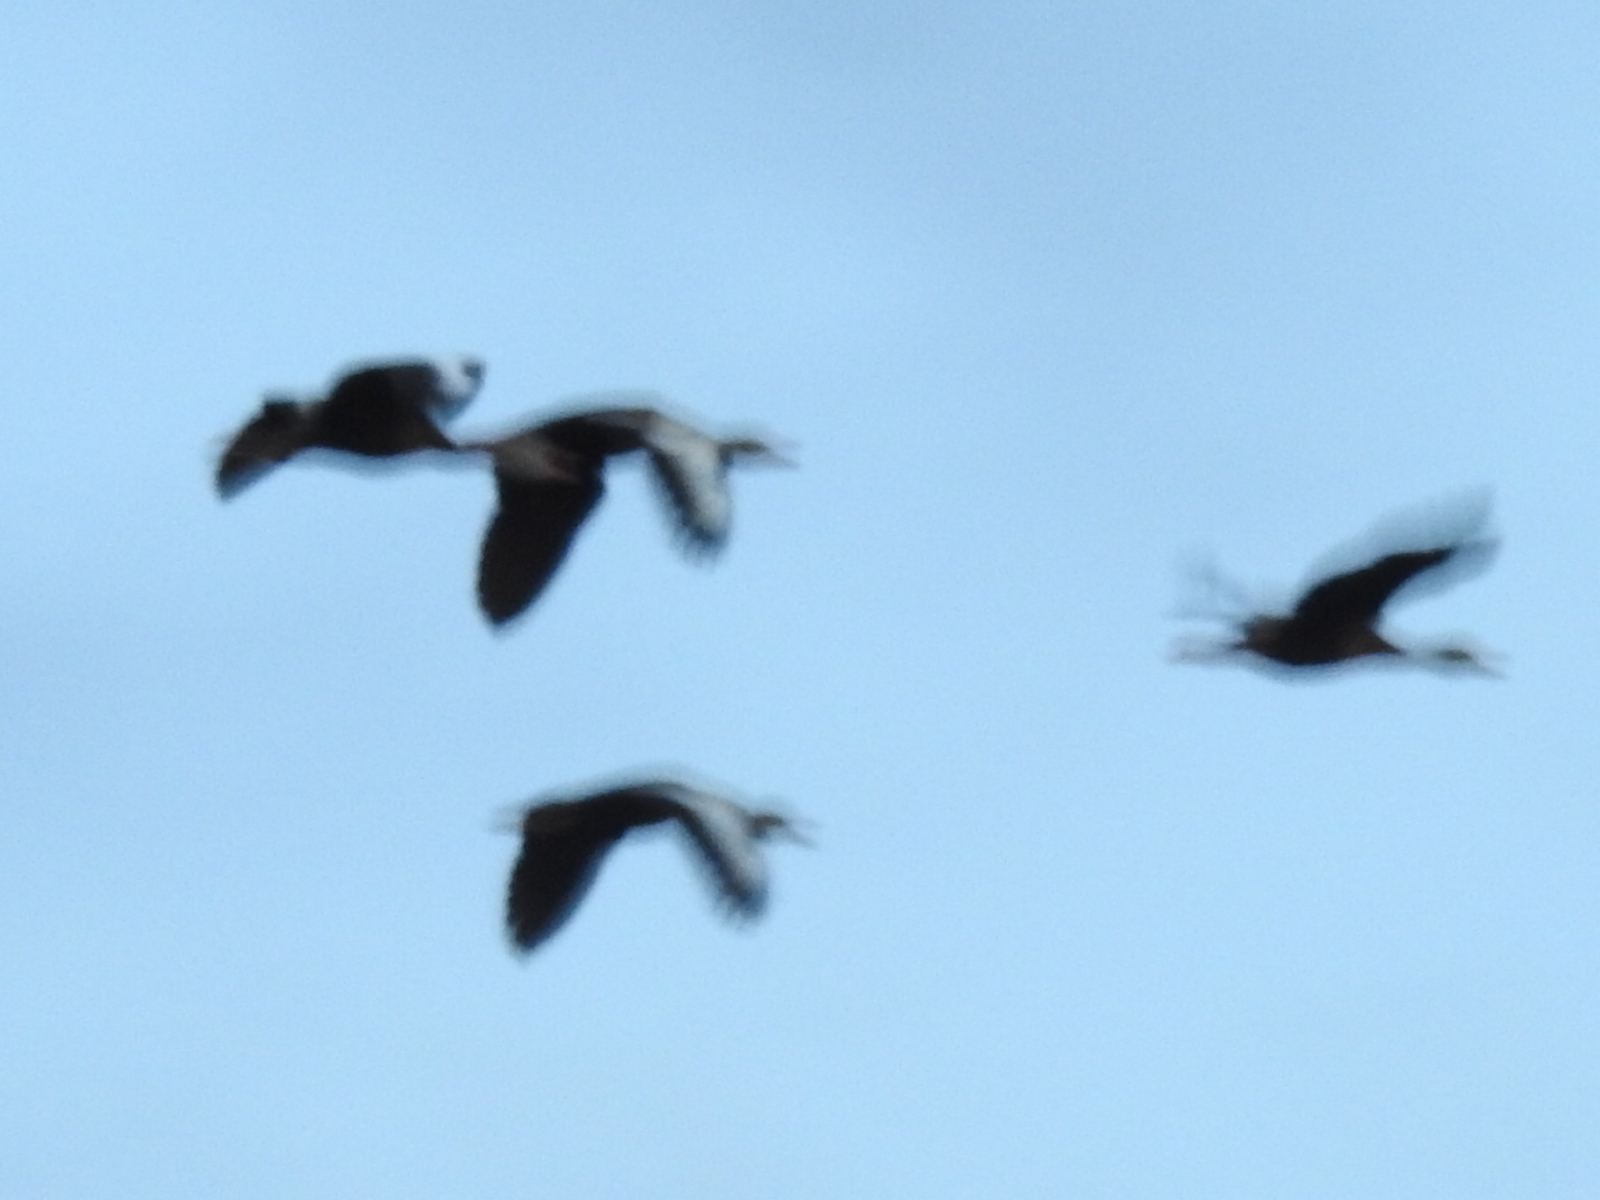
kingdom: Animalia
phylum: Chordata
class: Aves
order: Anseriformes
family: Anatidae
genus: Dendrocygna
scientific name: Dendrocygna autumnalis
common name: Black-bellied whistling duck
